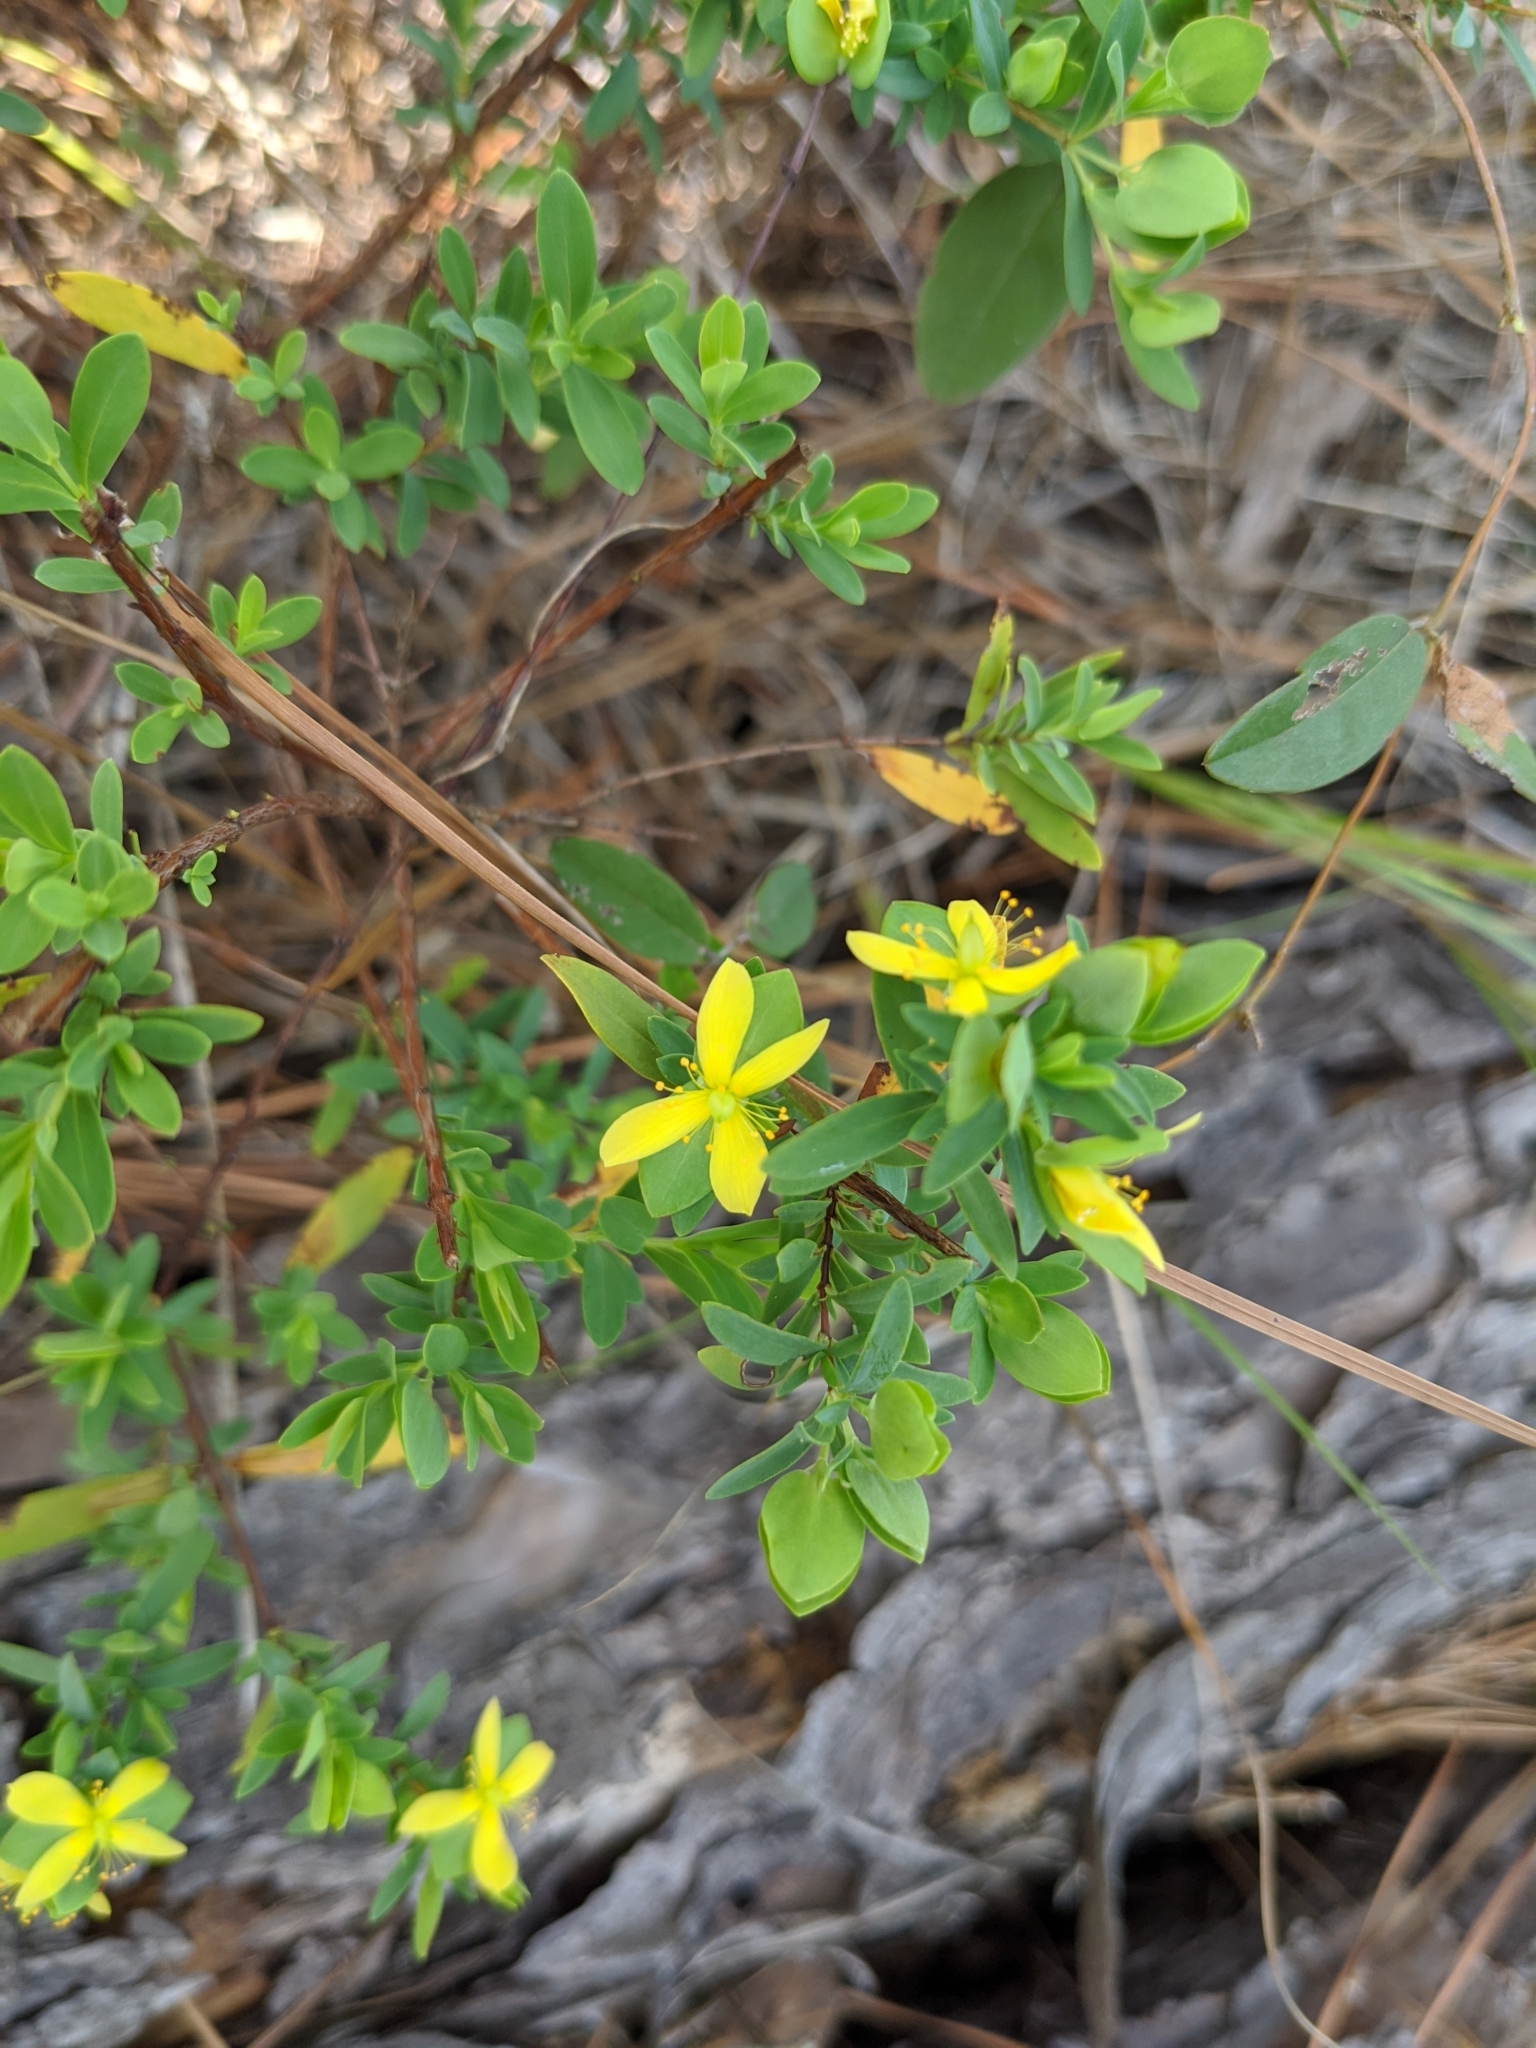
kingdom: Plantae
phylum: Tracheophyta
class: Magnoliopsida
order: Malpighiales
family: Hypericaceae
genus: Hypericum
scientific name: Hypericum hypericoides
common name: St. andrew's cross
